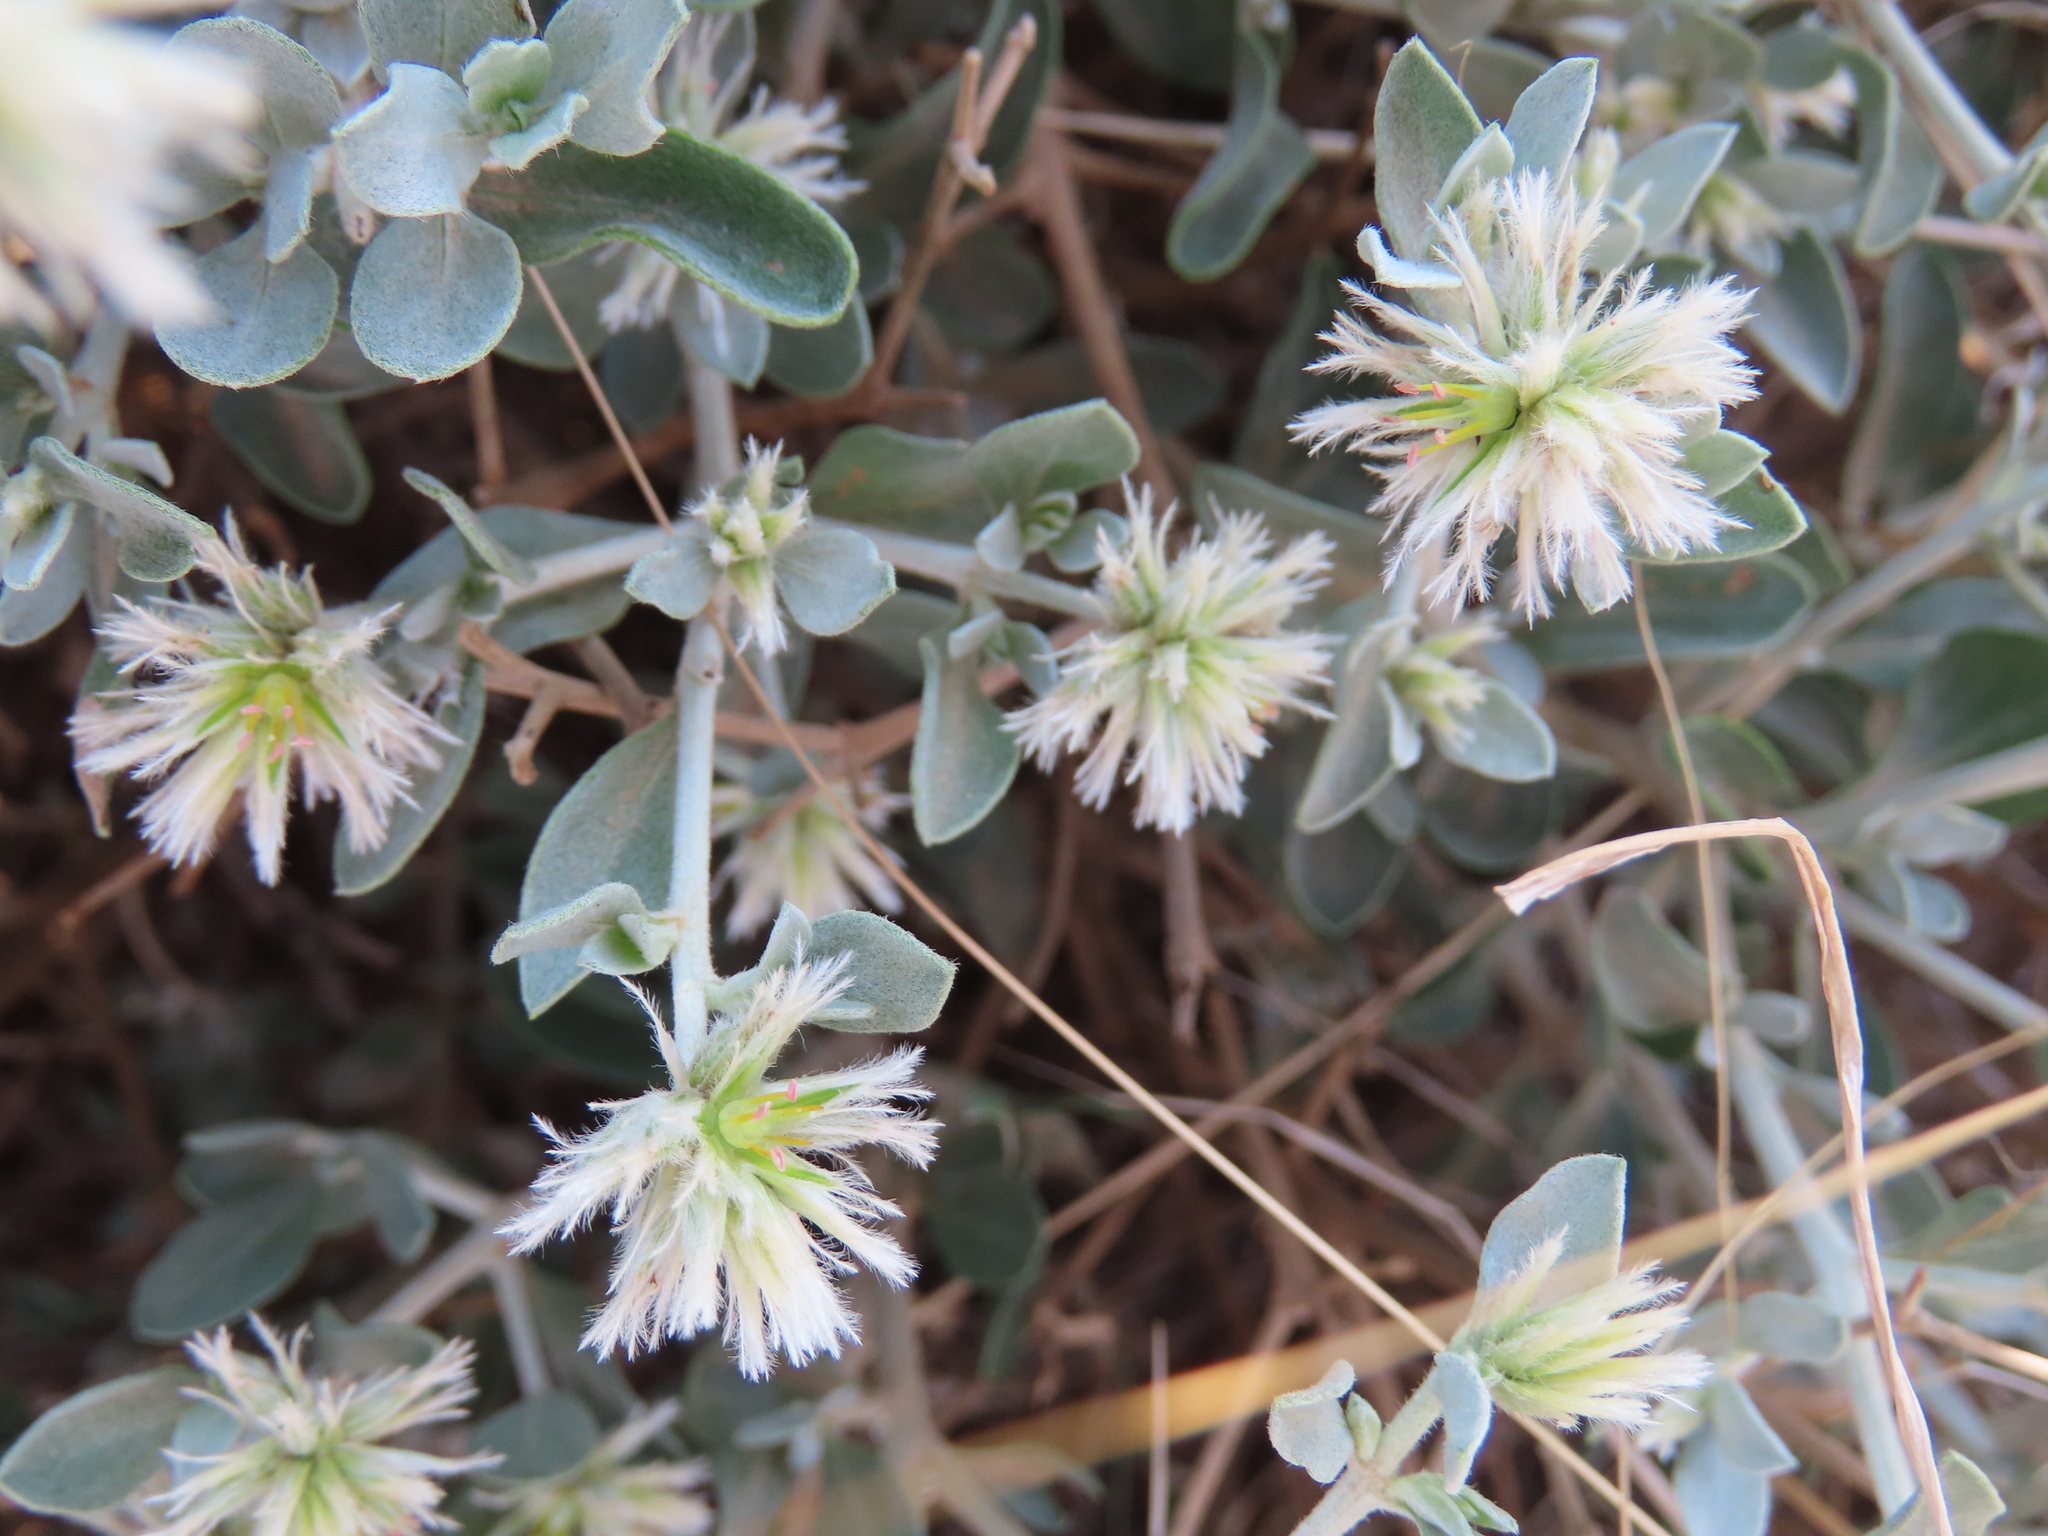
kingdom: Plantae
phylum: Tracheophyta
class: Magnoliopsida
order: Caryophyllales
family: Amaranthaceae
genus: Leucosphaera
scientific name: Leucosphaera bainesii
